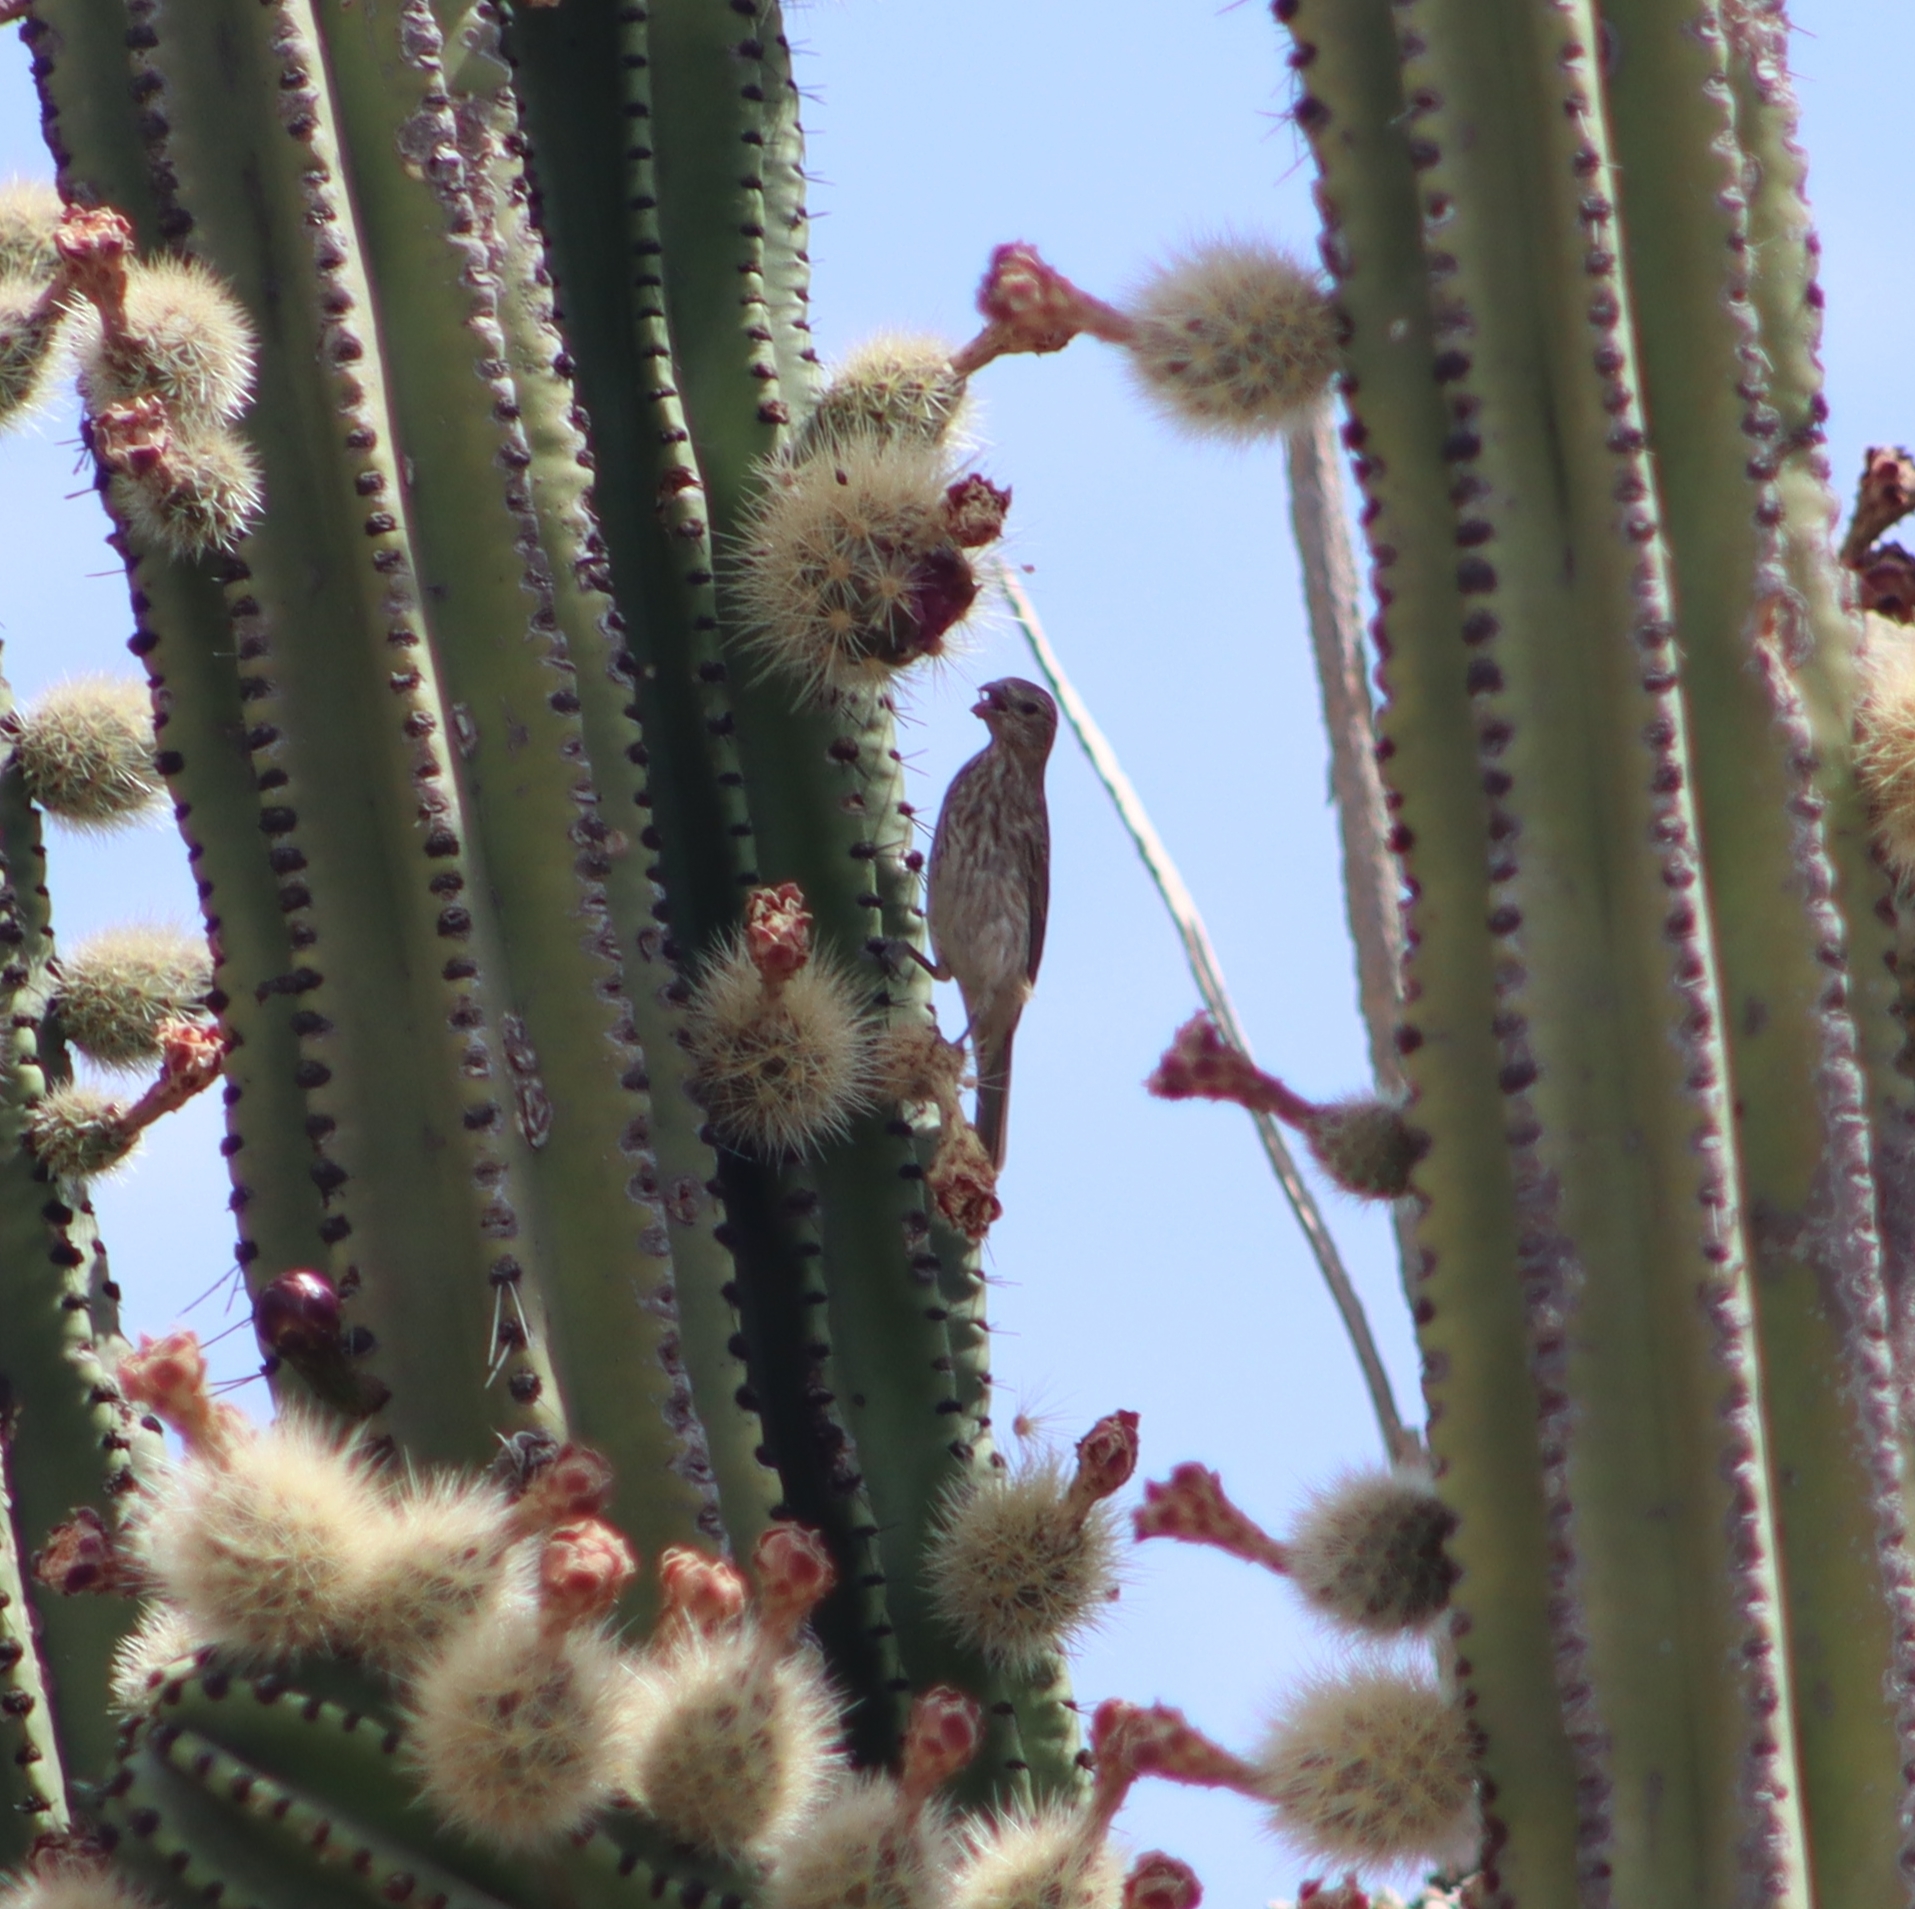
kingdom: Animalia
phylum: Chordata
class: Aves
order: Passeriformes
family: Fringillidae
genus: Haemorhous
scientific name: Haemorhous mexicanus
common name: House finch
